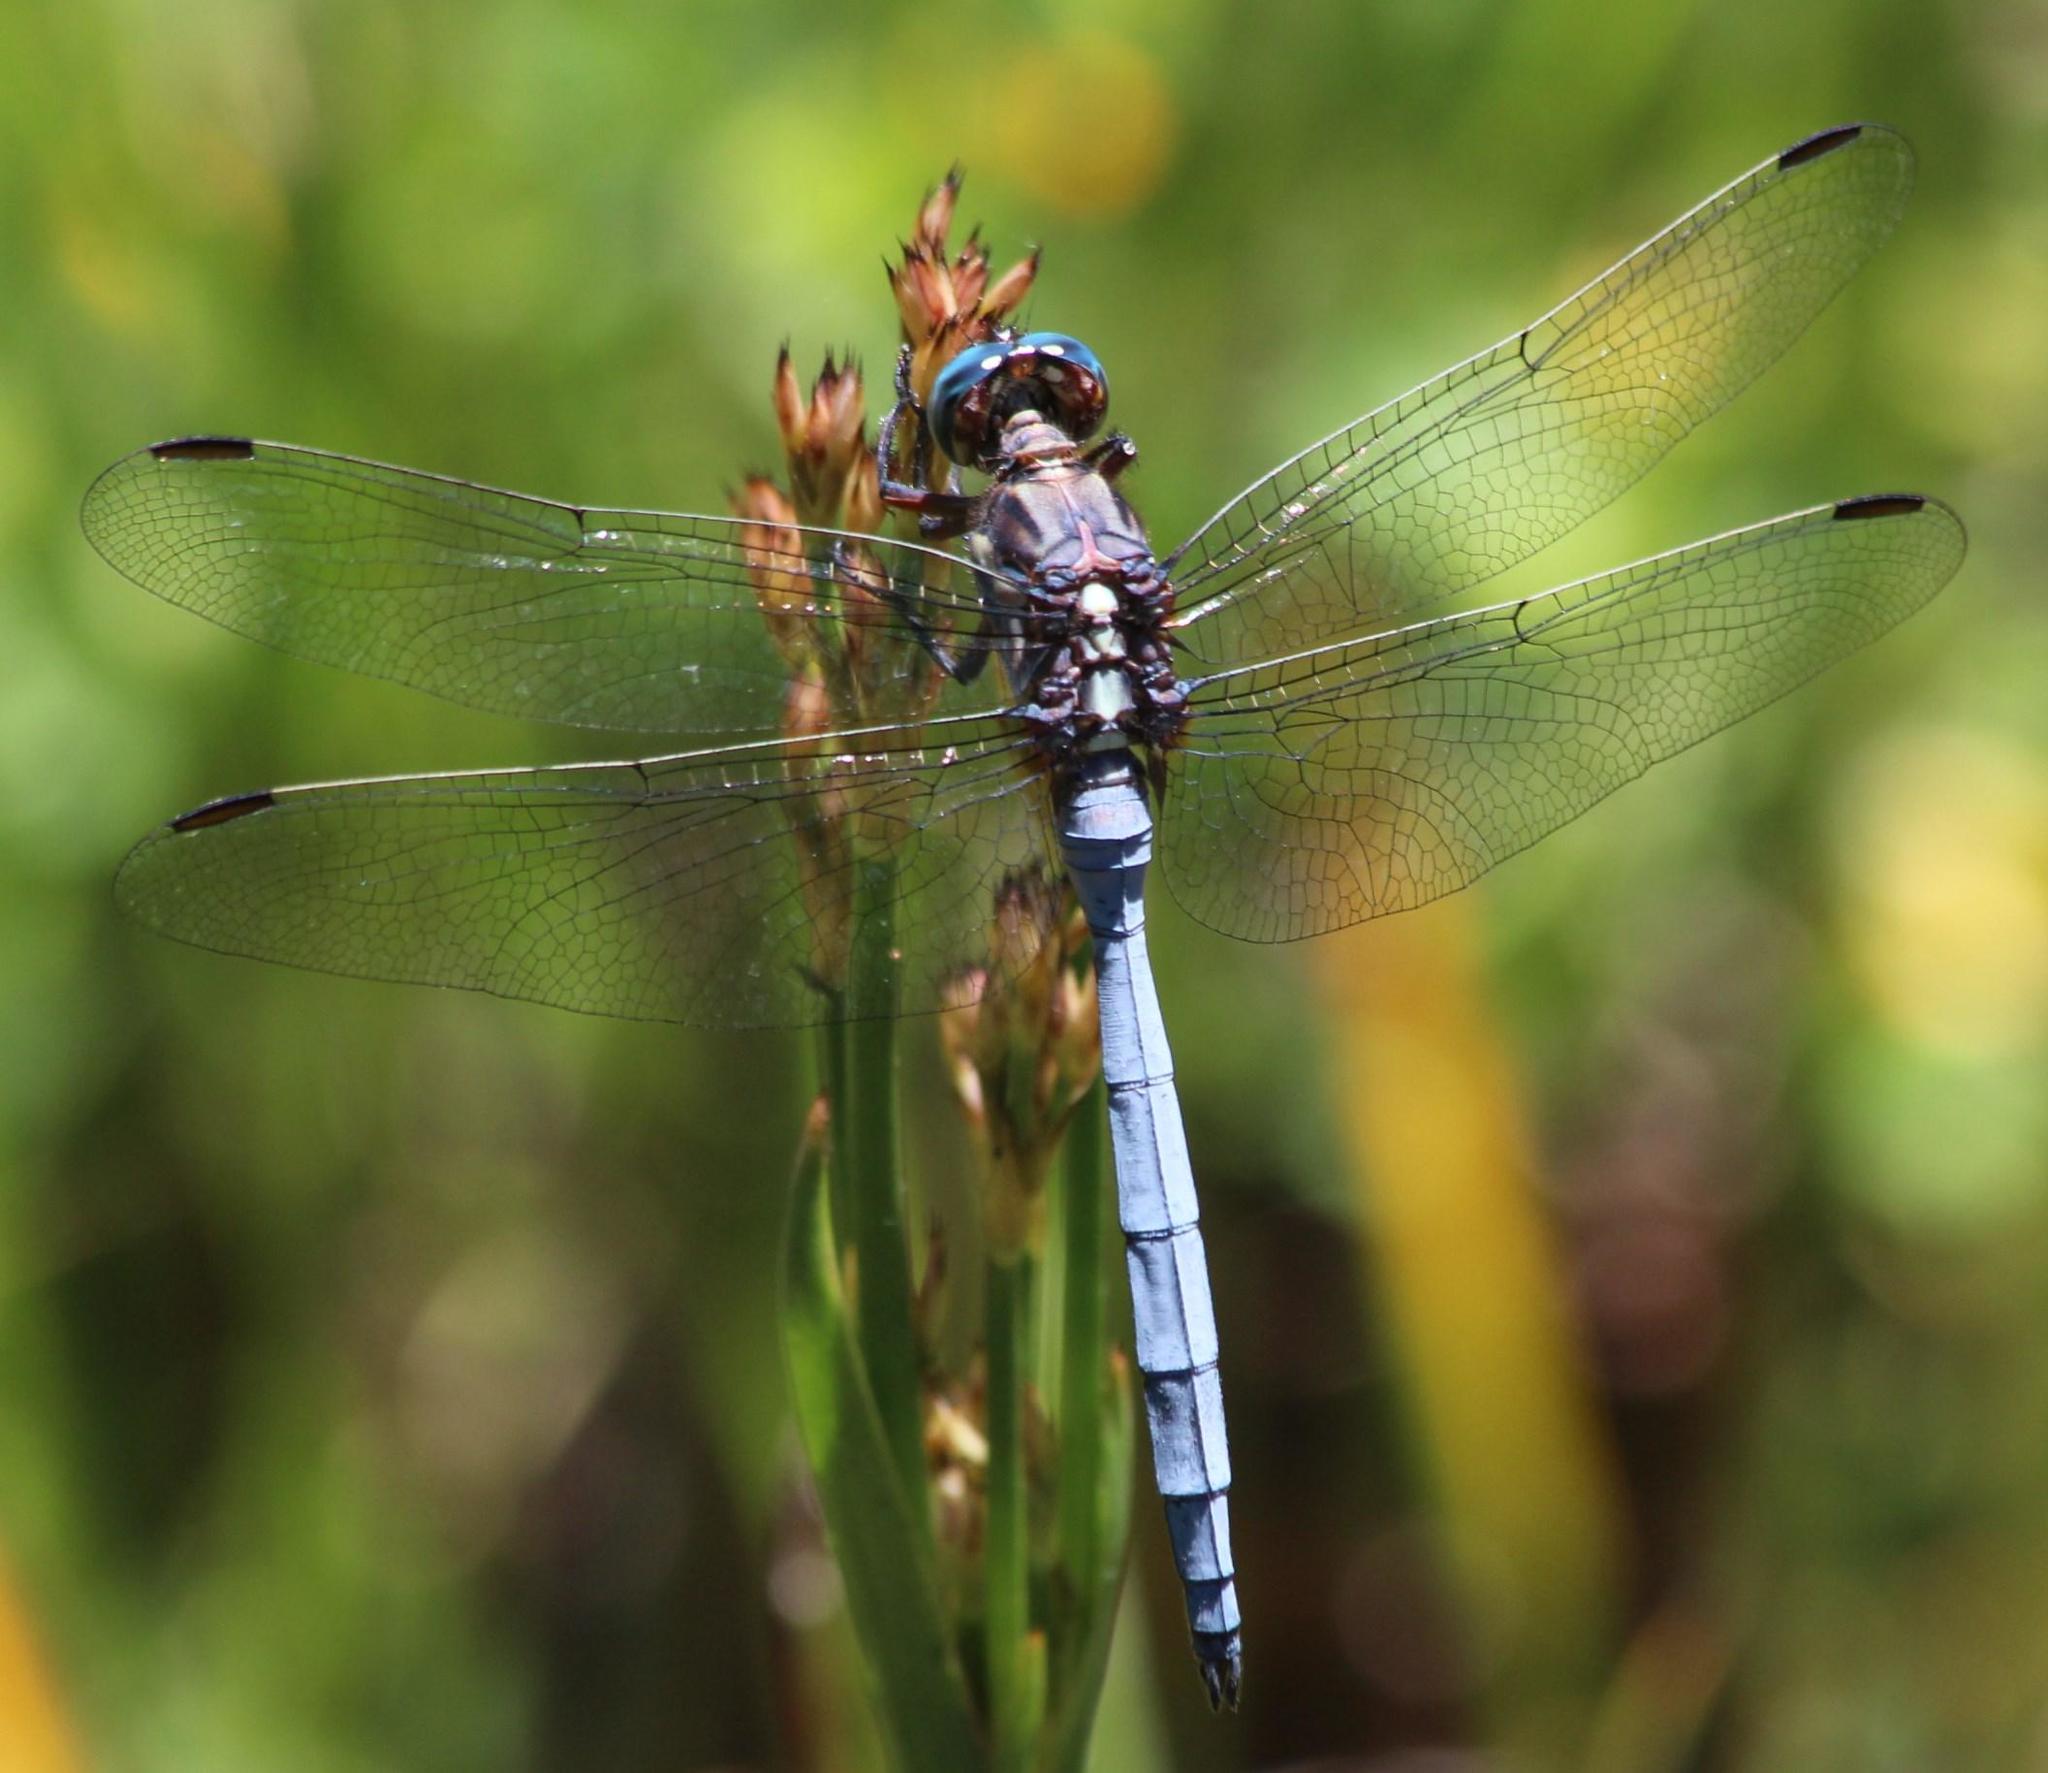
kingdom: Animalia
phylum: Arthropoda
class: Insecta
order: Odonata
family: Libellulidae
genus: Orthetrum
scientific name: Orthetrum julia
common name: Julia skimmer
